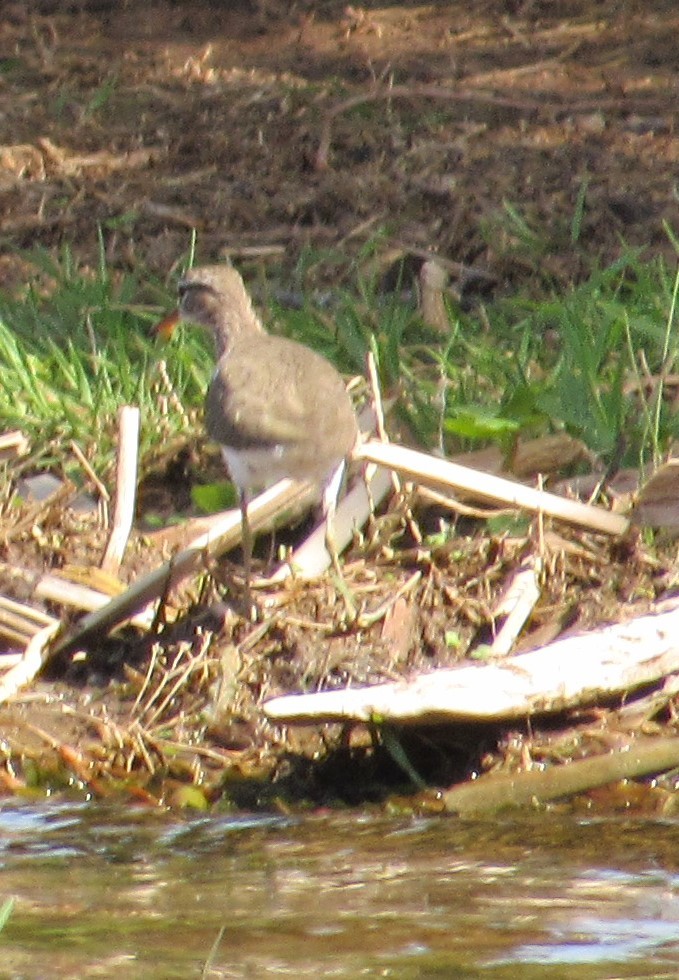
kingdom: Animalia
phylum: Chordata
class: Aves
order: Charadriiformes
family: Scolopacidae
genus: Actitis
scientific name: Actitis macularius
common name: Spotted sandpiper
